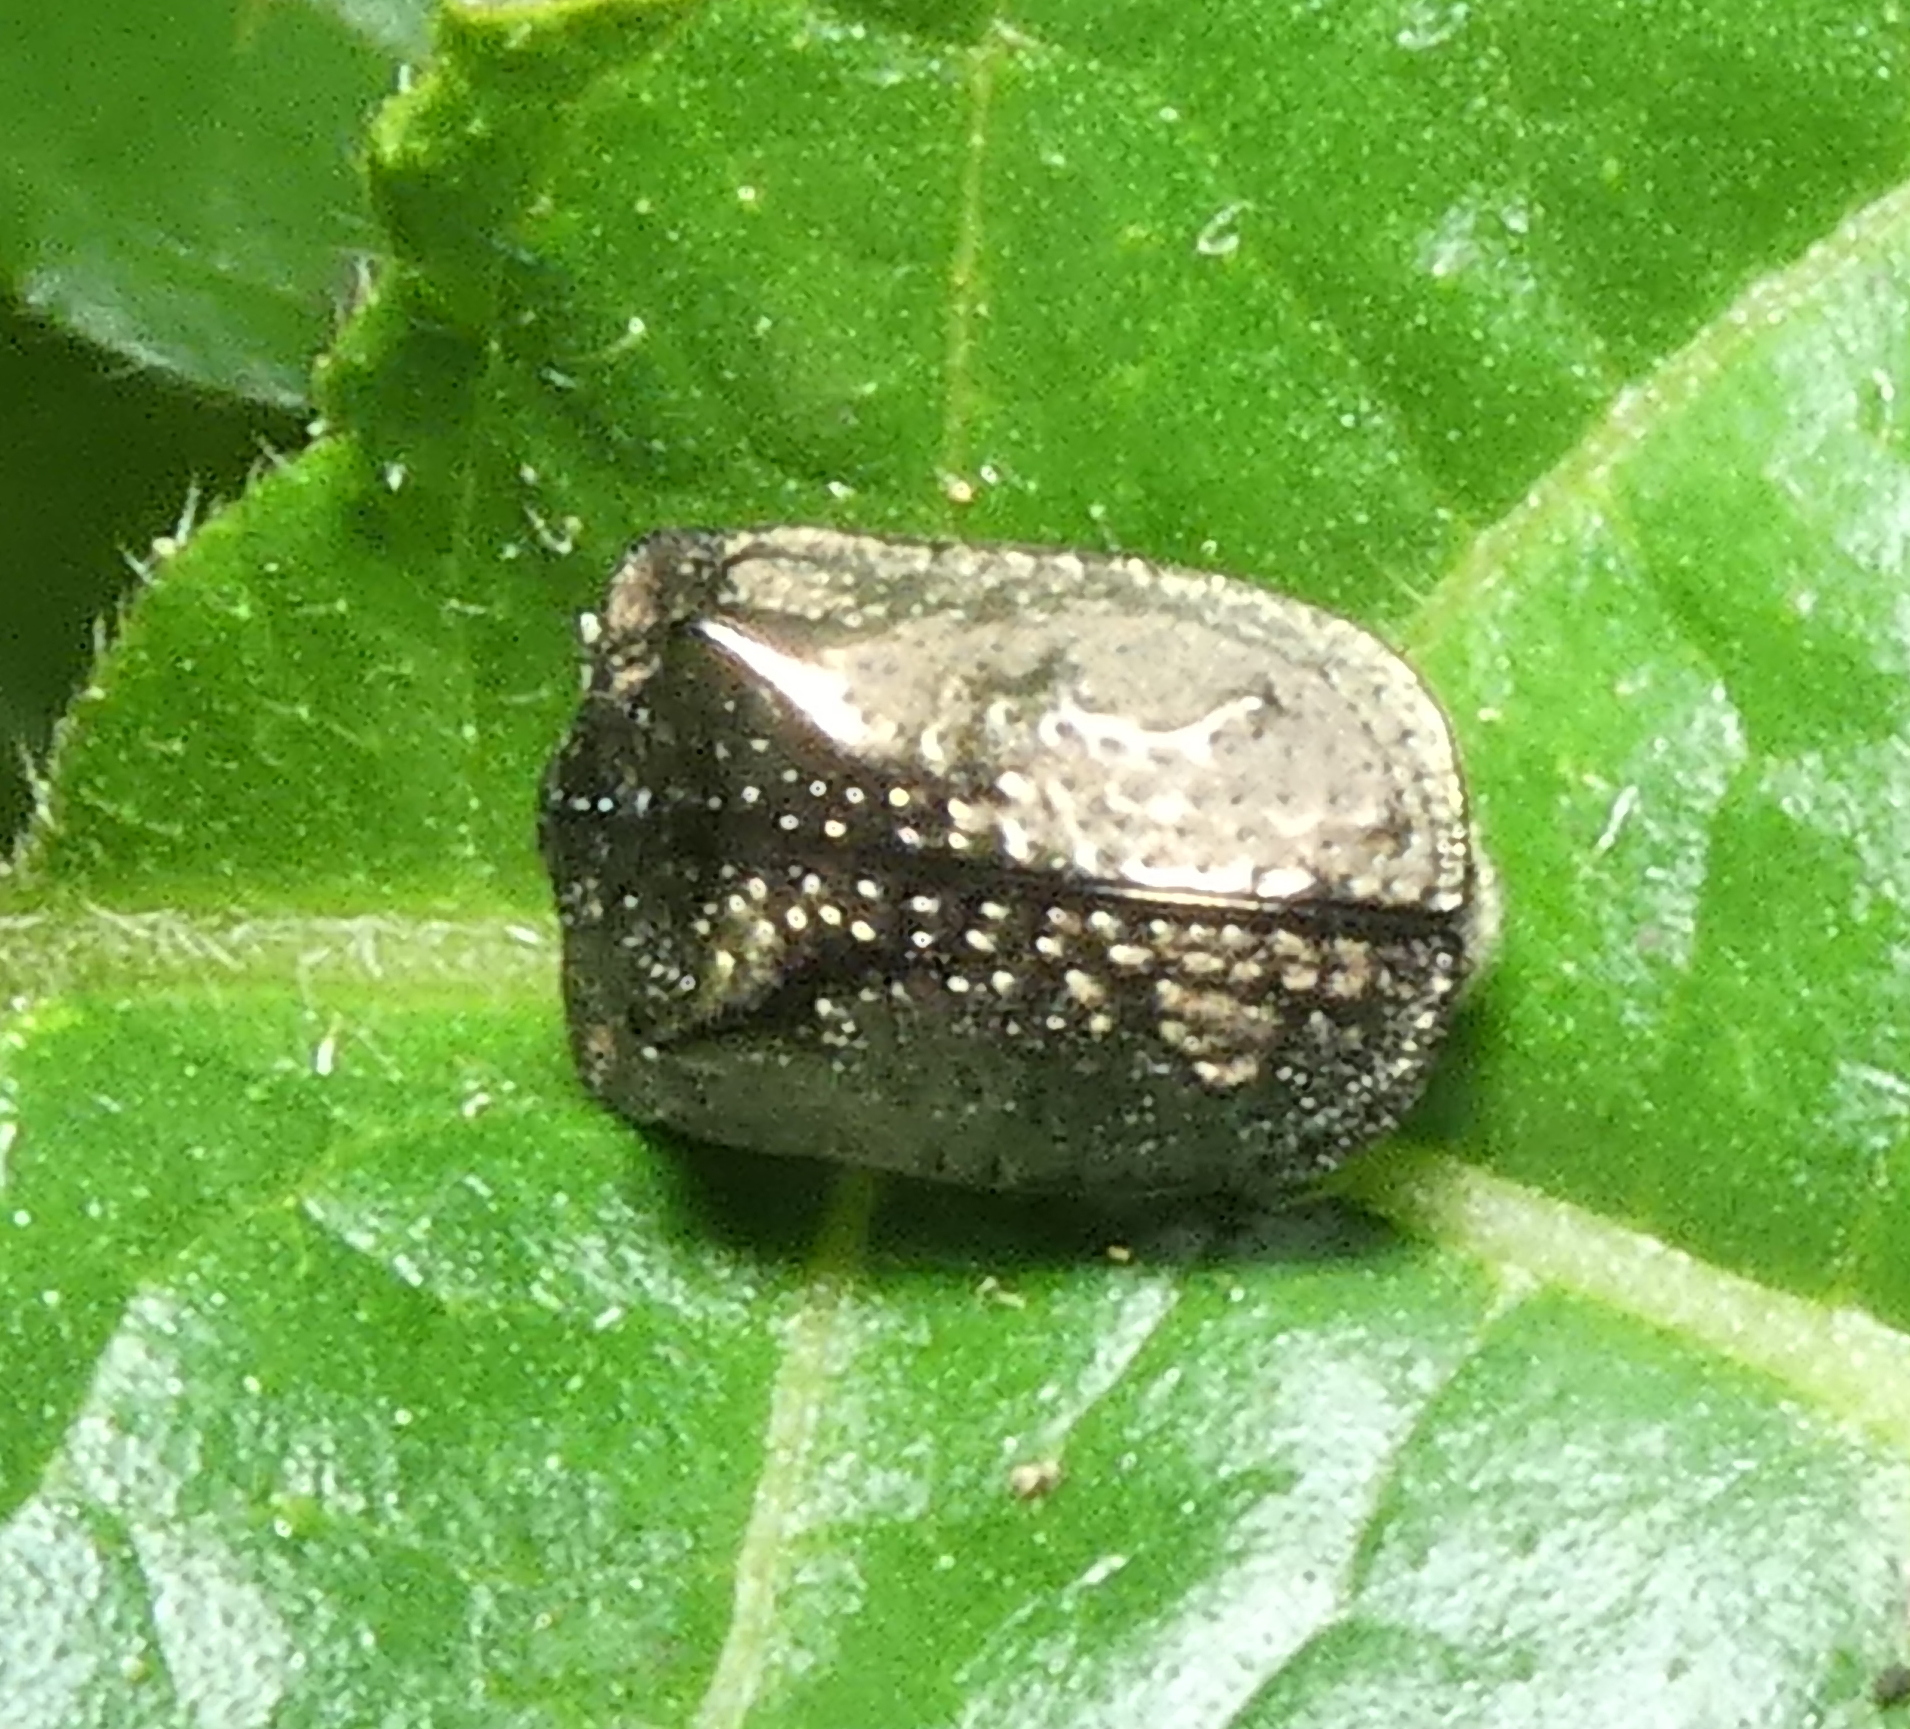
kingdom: Animalia
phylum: Arthropoda
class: Insecta
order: Coleoptera
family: Chrysomelidae
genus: Chlamydocassis
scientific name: Chlamydocassis bicornuta
